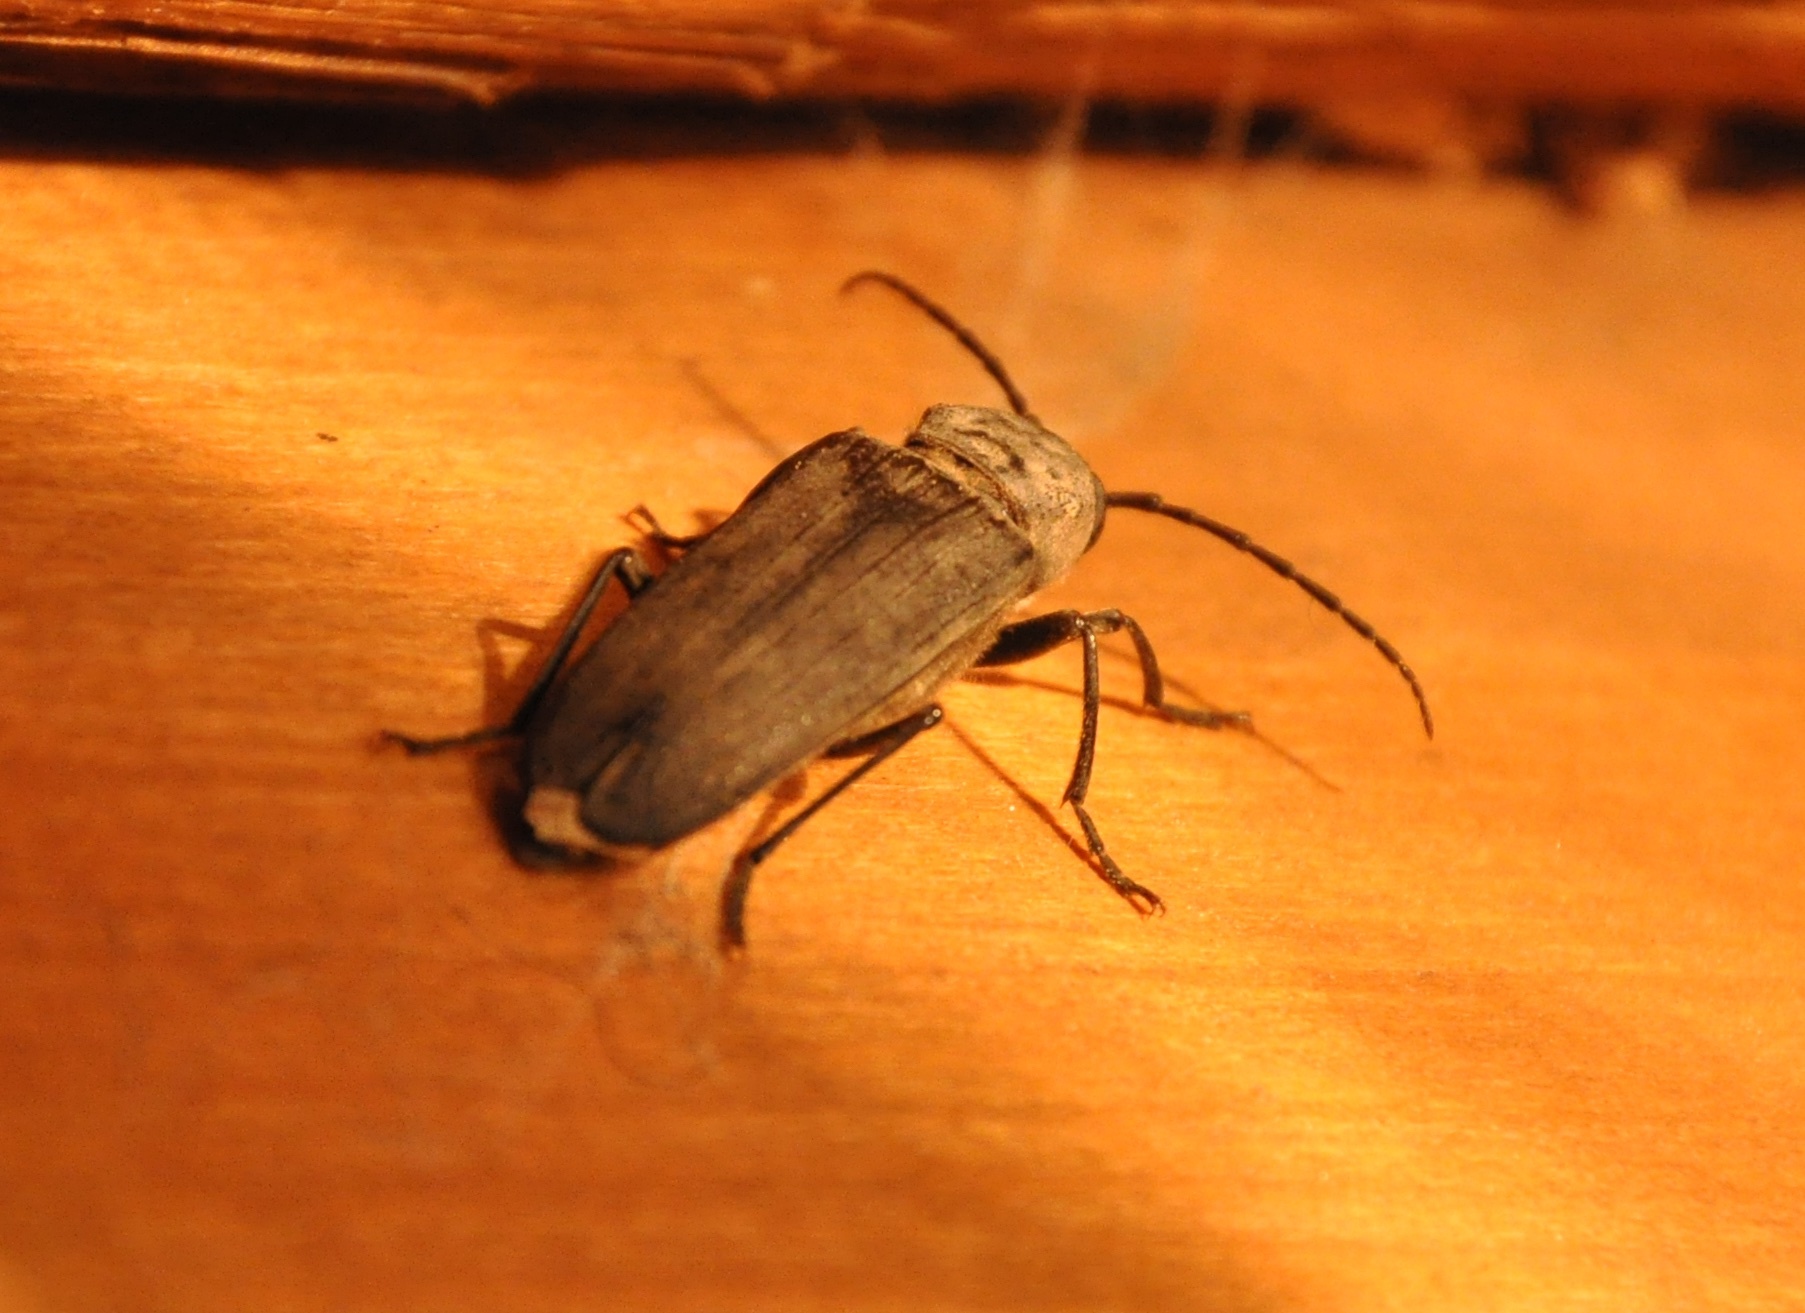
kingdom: Animalia
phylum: Arthropoda
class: Insecta
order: Coleoptera
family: Cerambycidae
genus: Arhopalus
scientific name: Arhopalus productus
